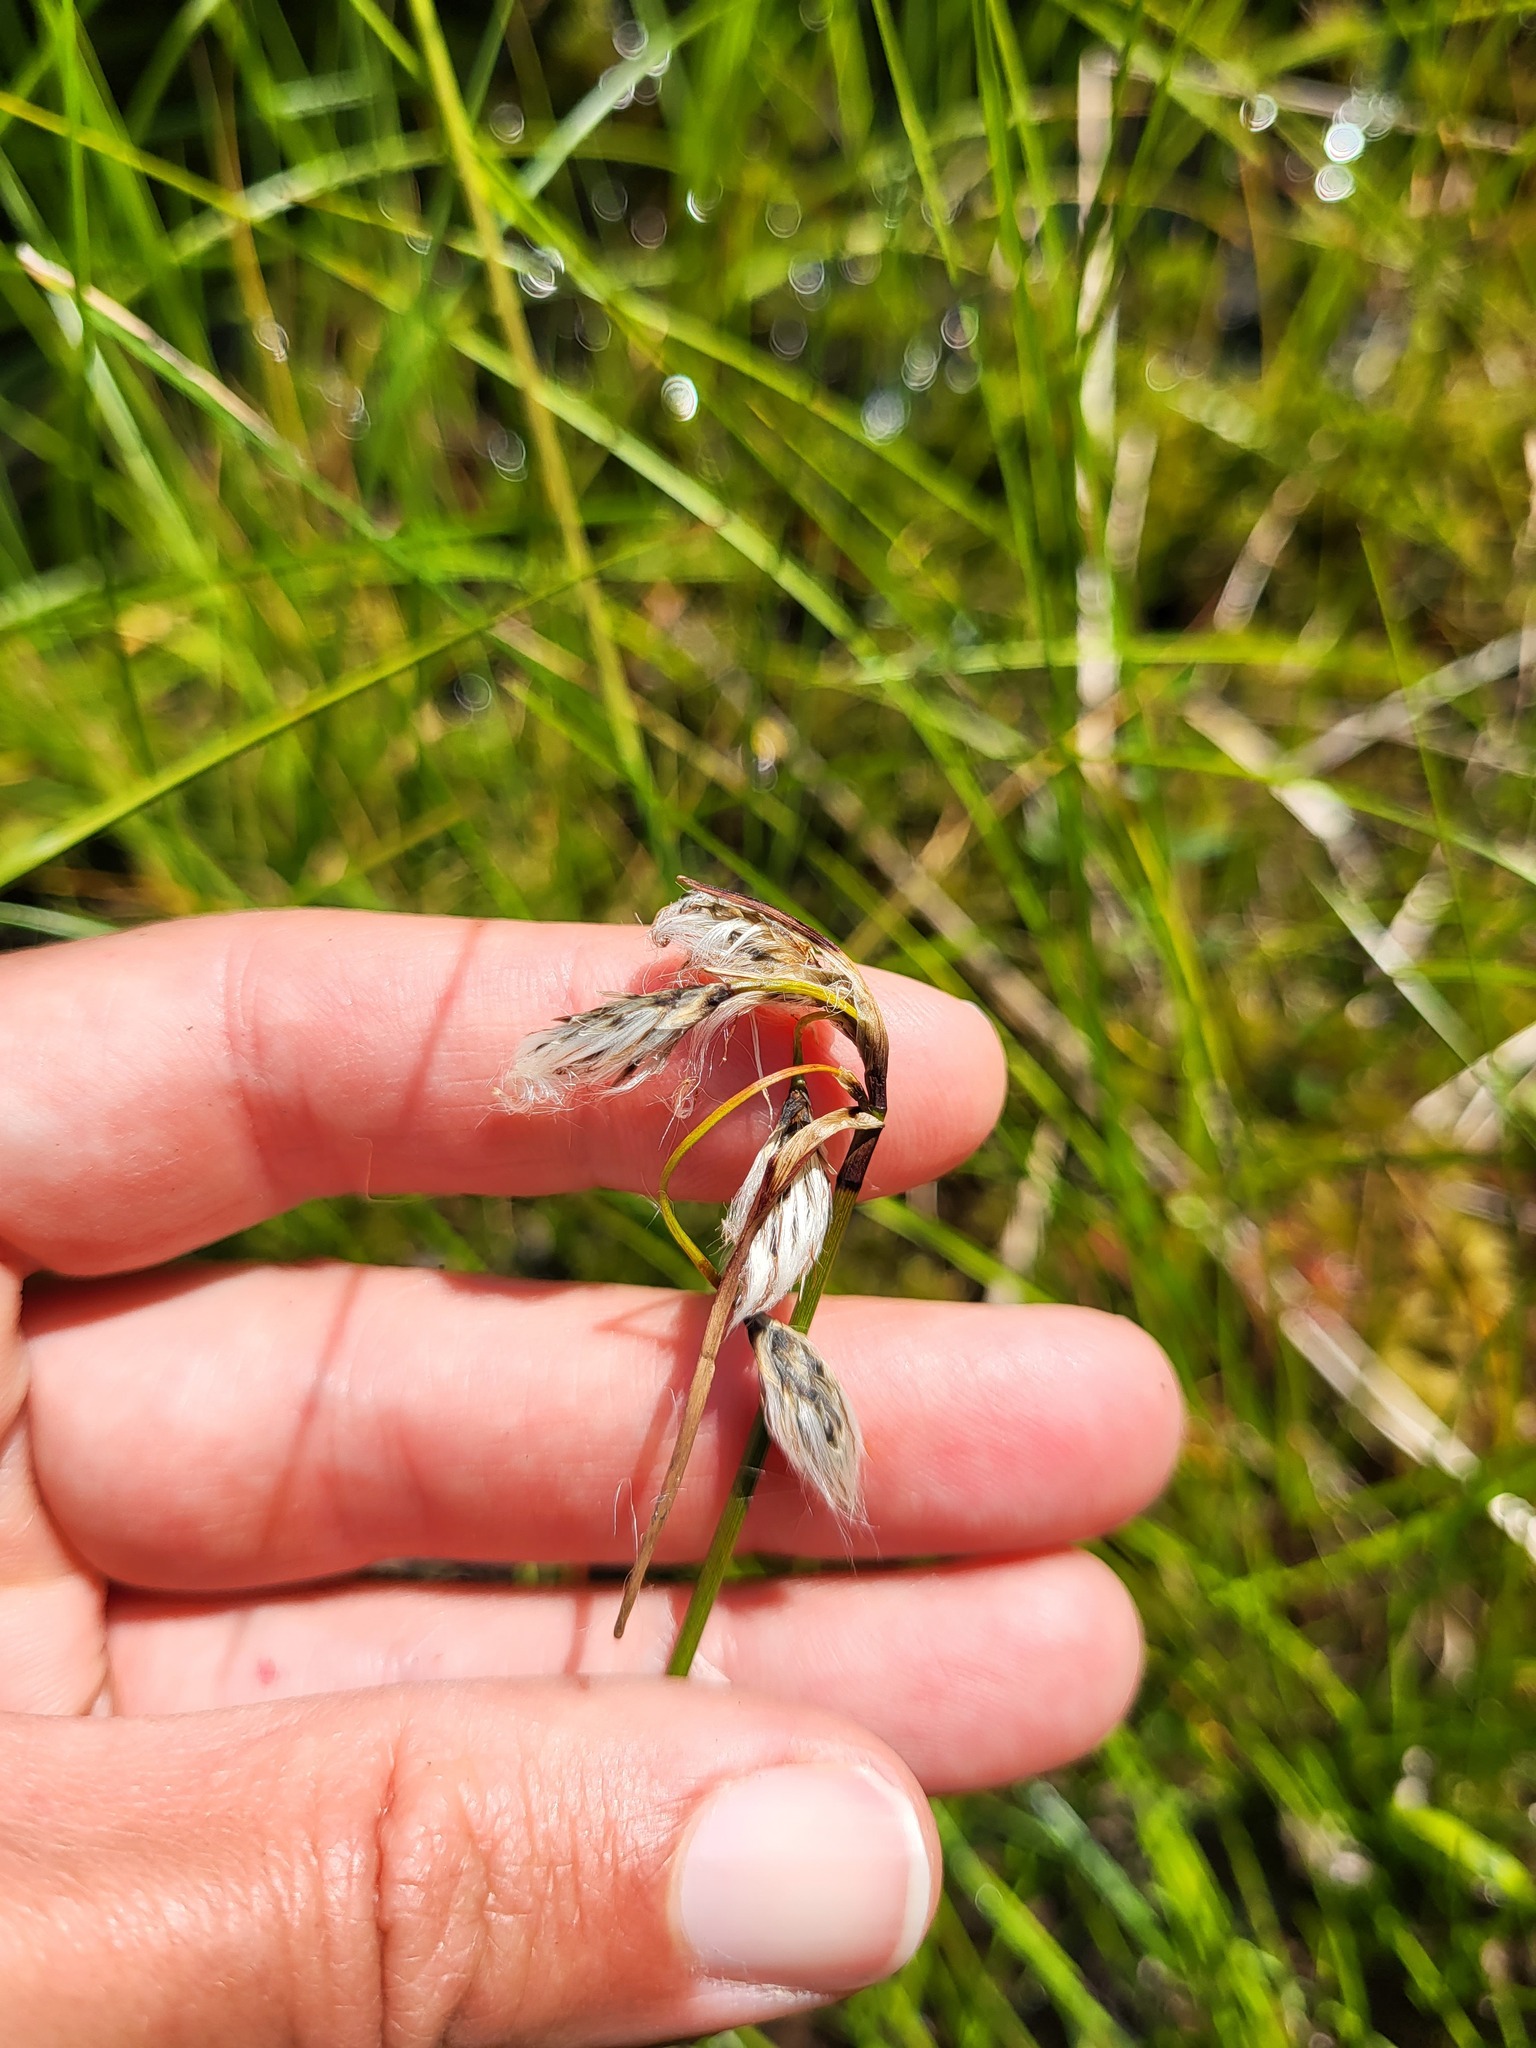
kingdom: Plantae
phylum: Tracheophyta
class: Liliopsida
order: Poales
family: Cyperaceae
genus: Eriophorum
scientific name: Eriophorum angustifolium
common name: Common cottongrass
